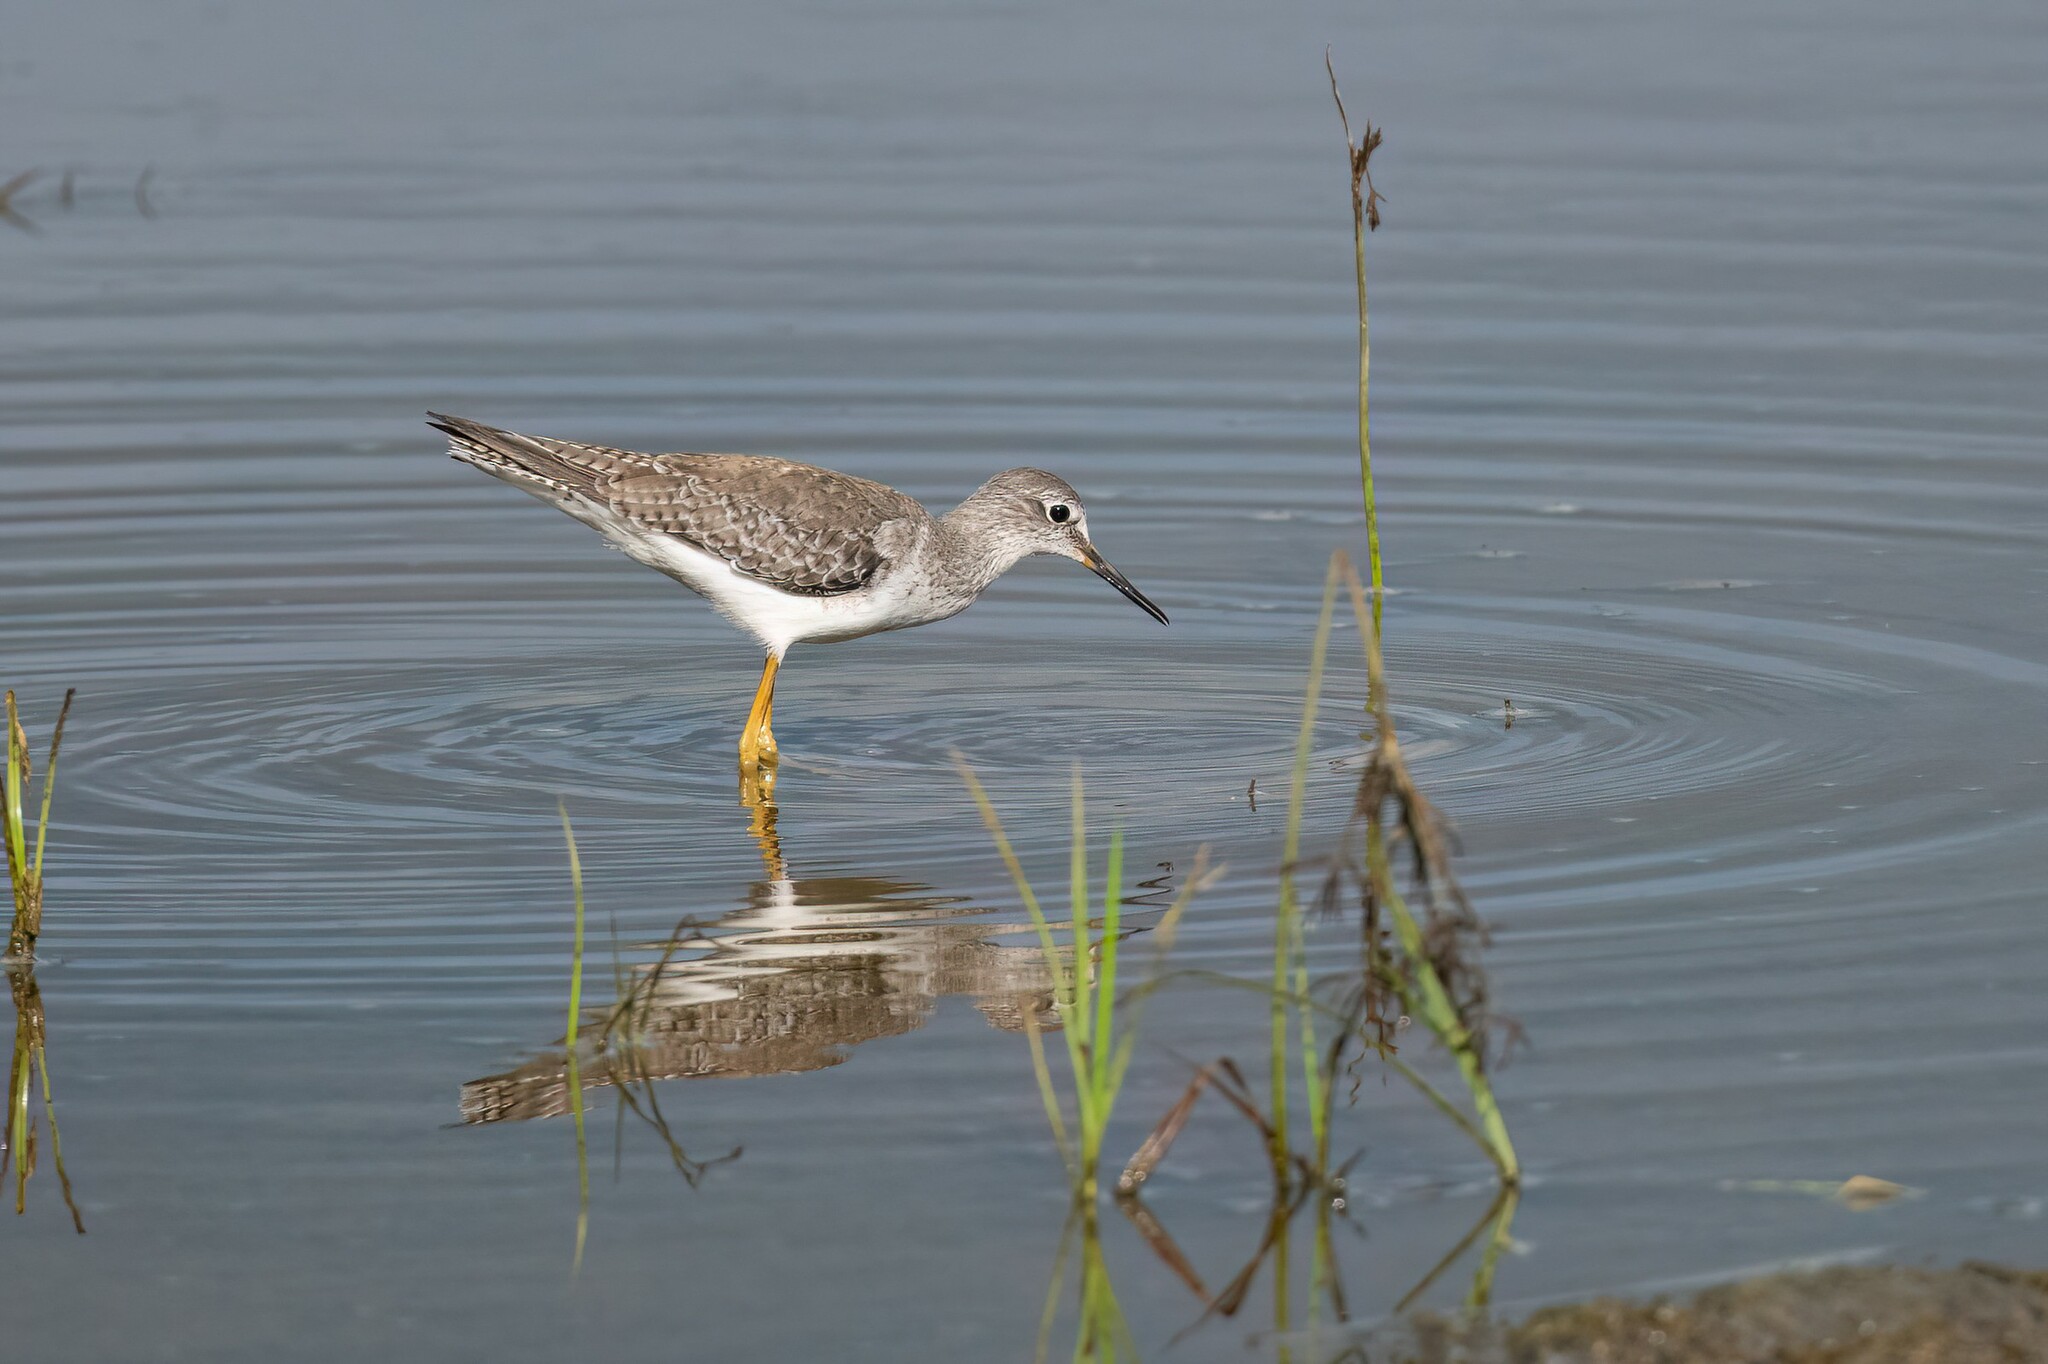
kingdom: Animalia
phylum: Chordata
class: Aves
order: Charadriiformes
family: Scolopacidae
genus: Tringa
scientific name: Tringa flavipes
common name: Lesser yellowlegs
